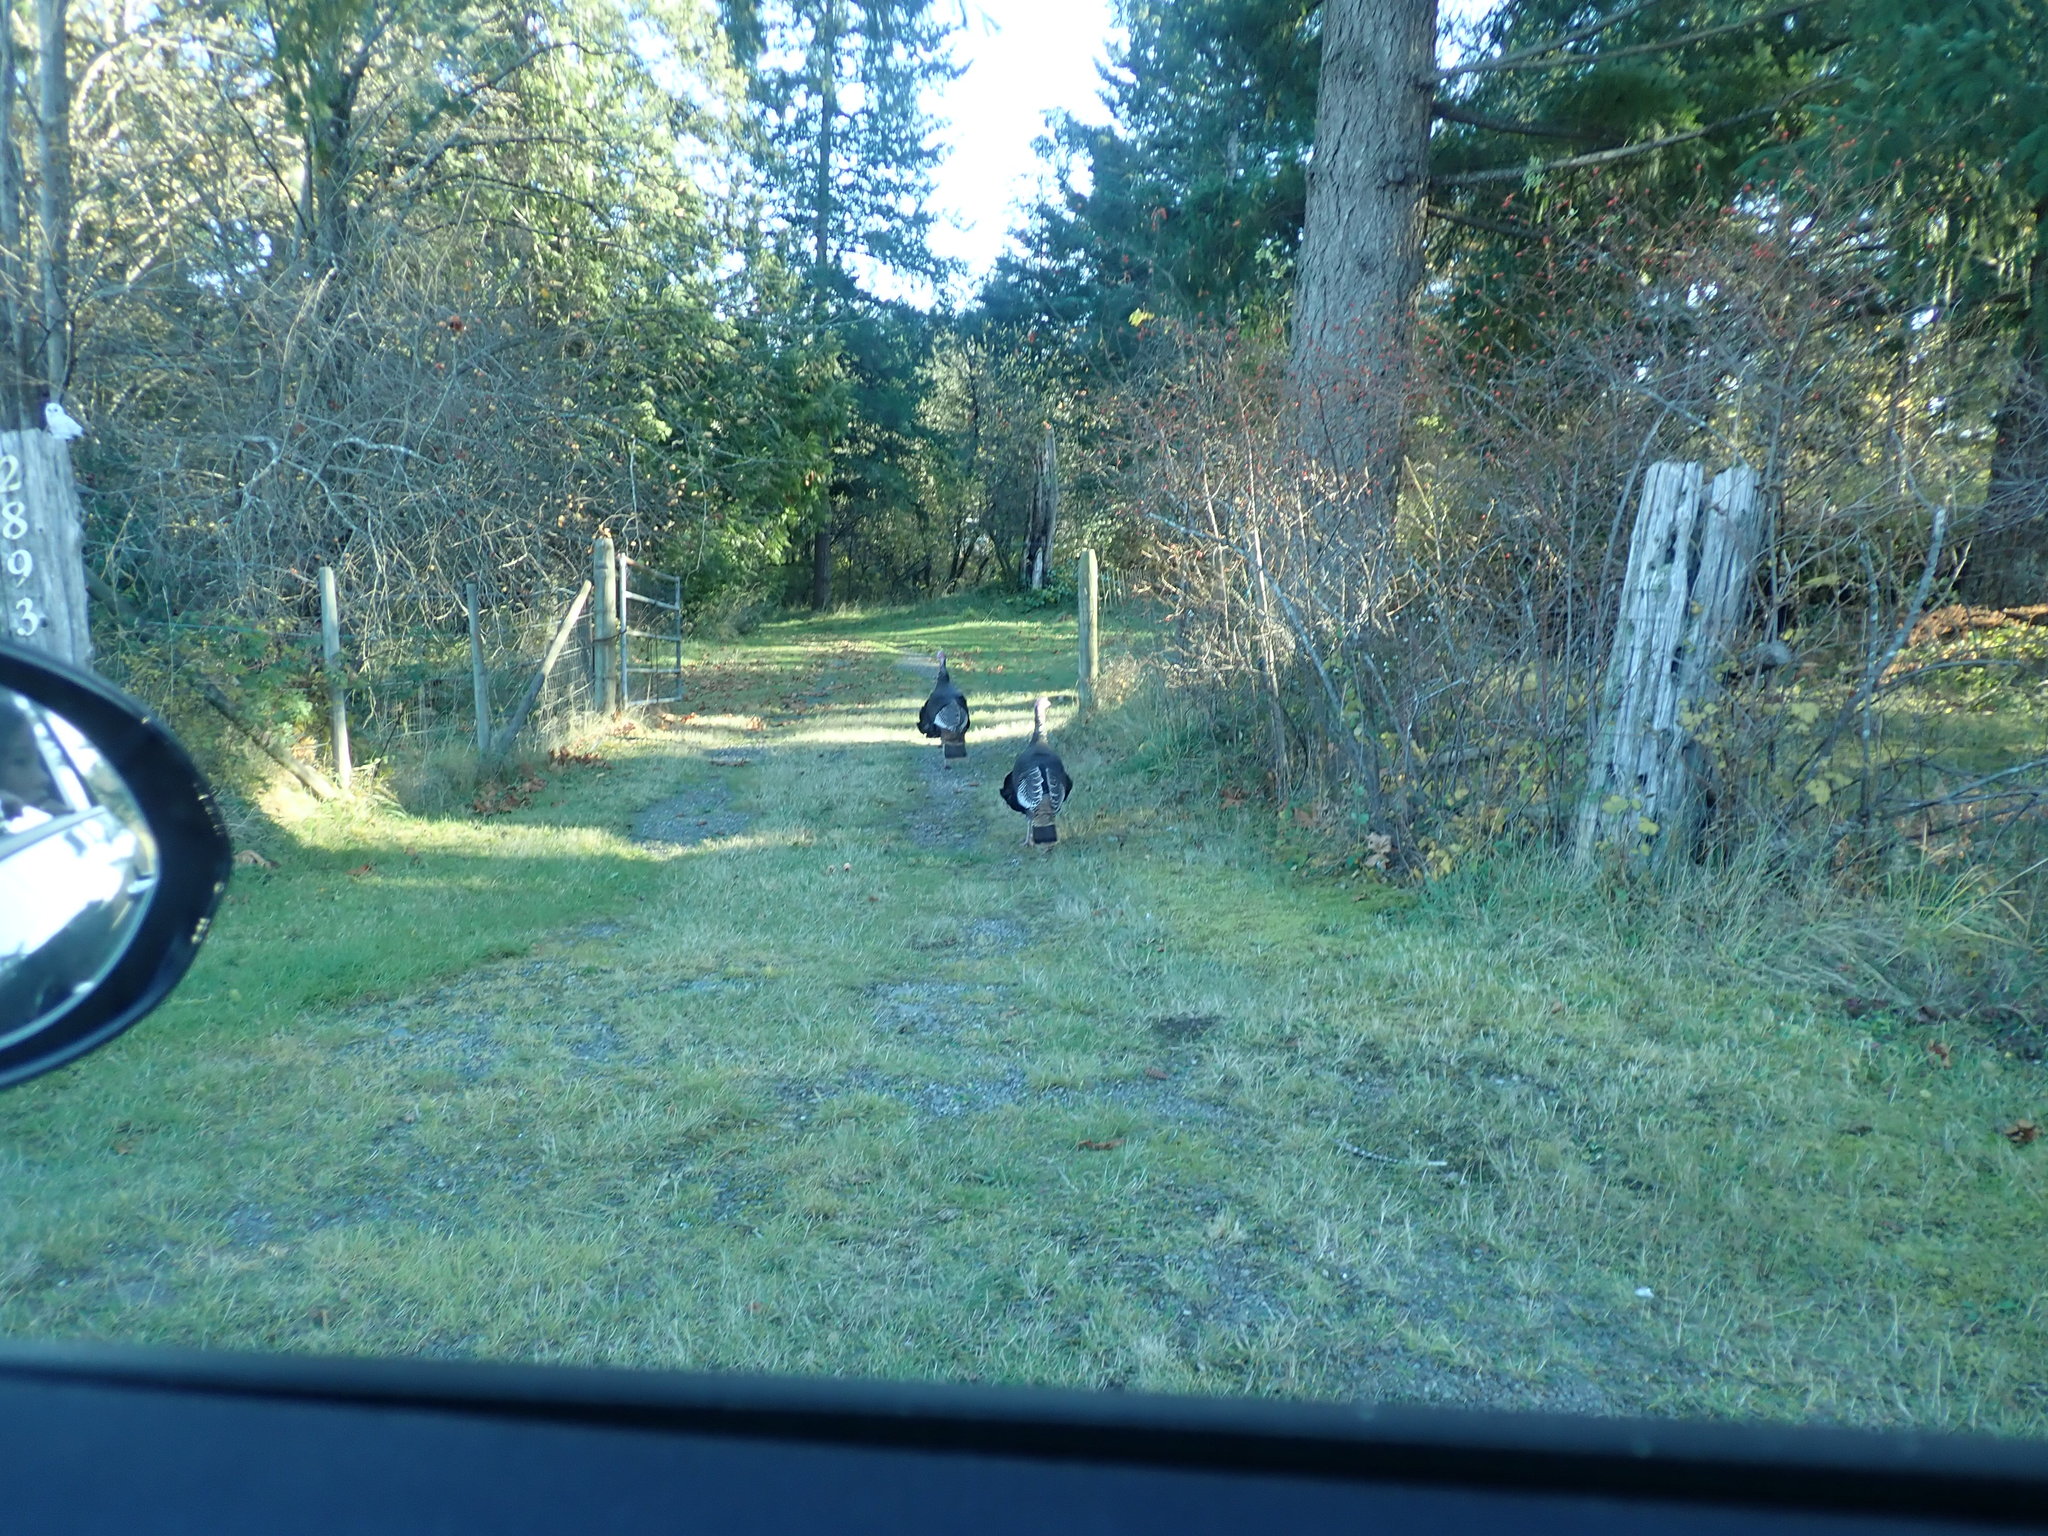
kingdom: Animalia
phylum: Chordata
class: Aves
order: Galliformes
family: Phasianidae
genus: Meleagris
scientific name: Meleagris gallopavo
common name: Wild turkey
